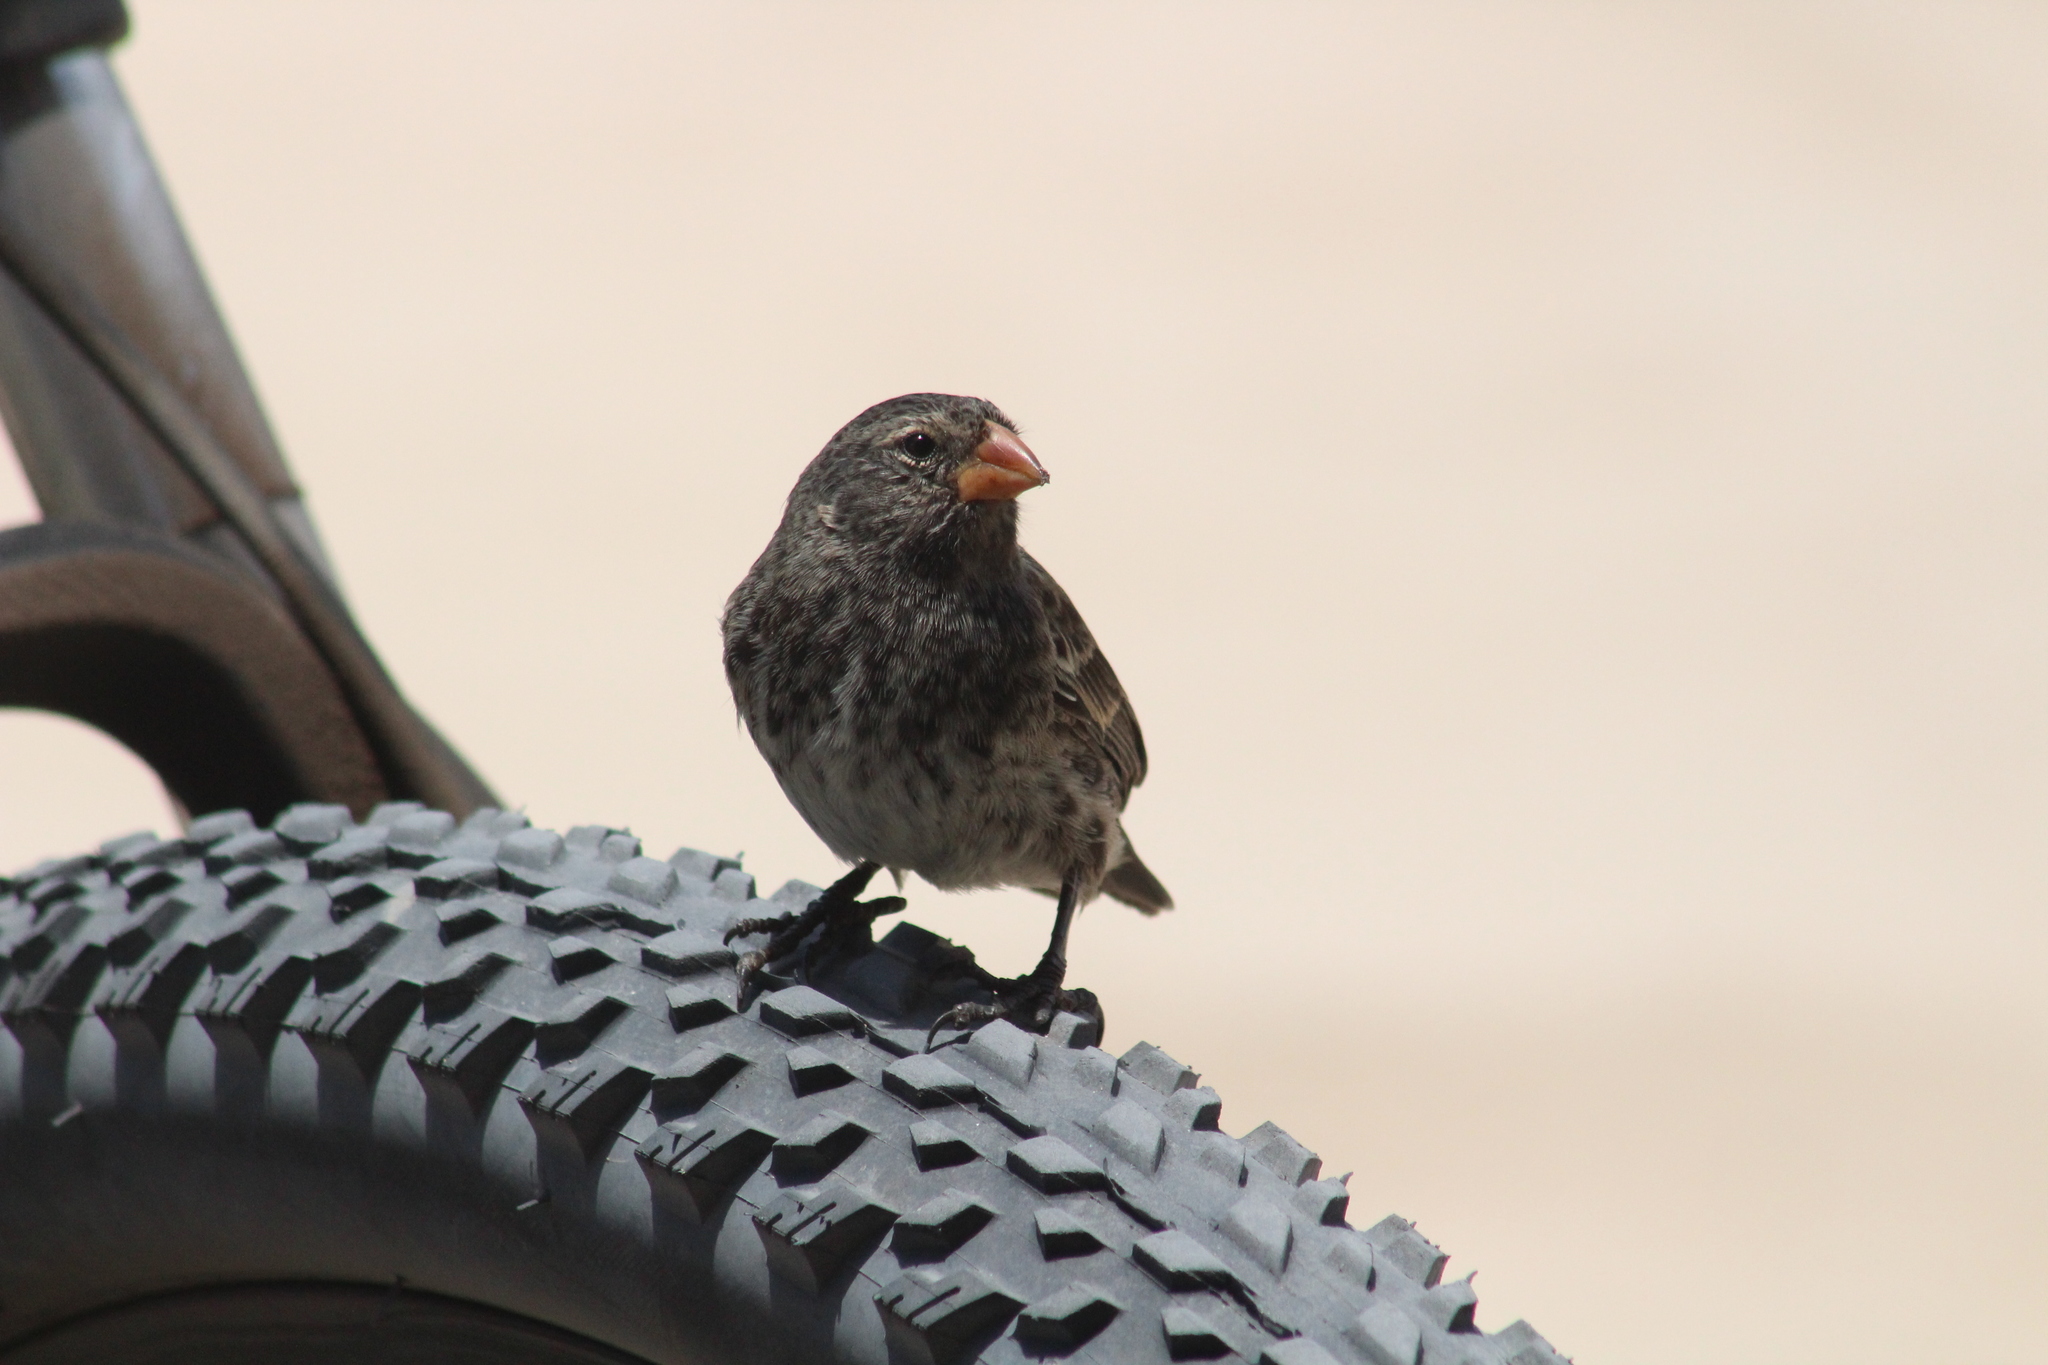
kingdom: Animalia
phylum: Chordata
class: Aves
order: Passeriformes
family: Thraupidae
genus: Geospiza
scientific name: Geospiza fortis
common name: Medium ground finch
